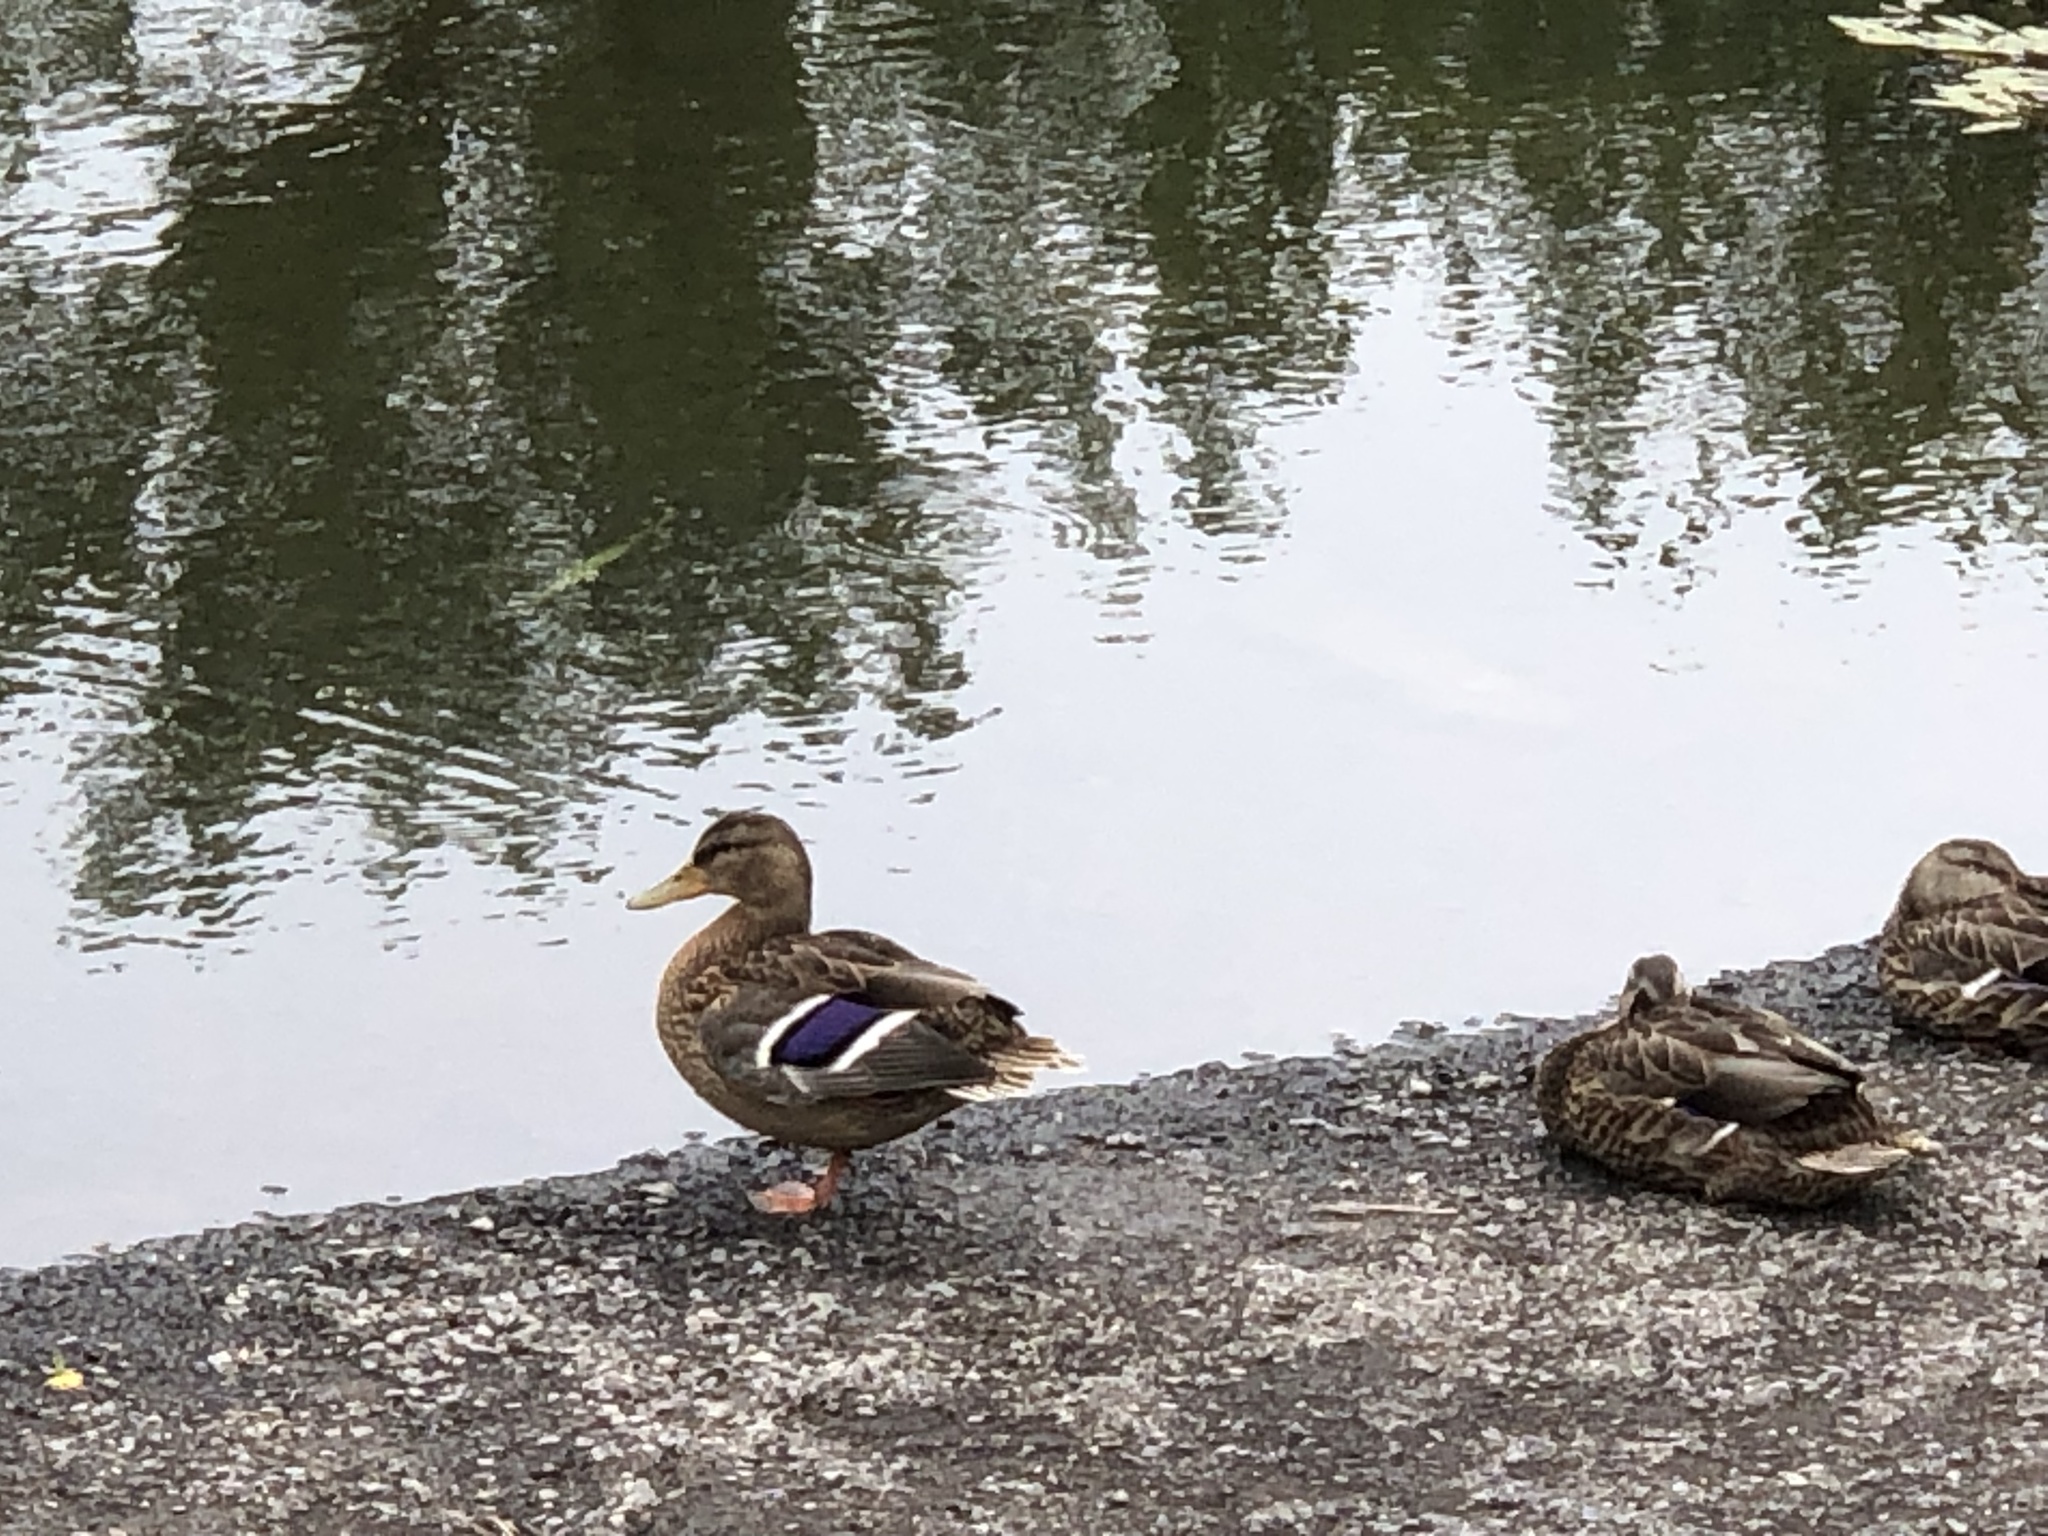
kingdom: Animalia
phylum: Chordata
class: Aves
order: Anseriformes
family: Anatidae
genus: Anas
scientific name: Anas platyrhynchos
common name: Mallard
